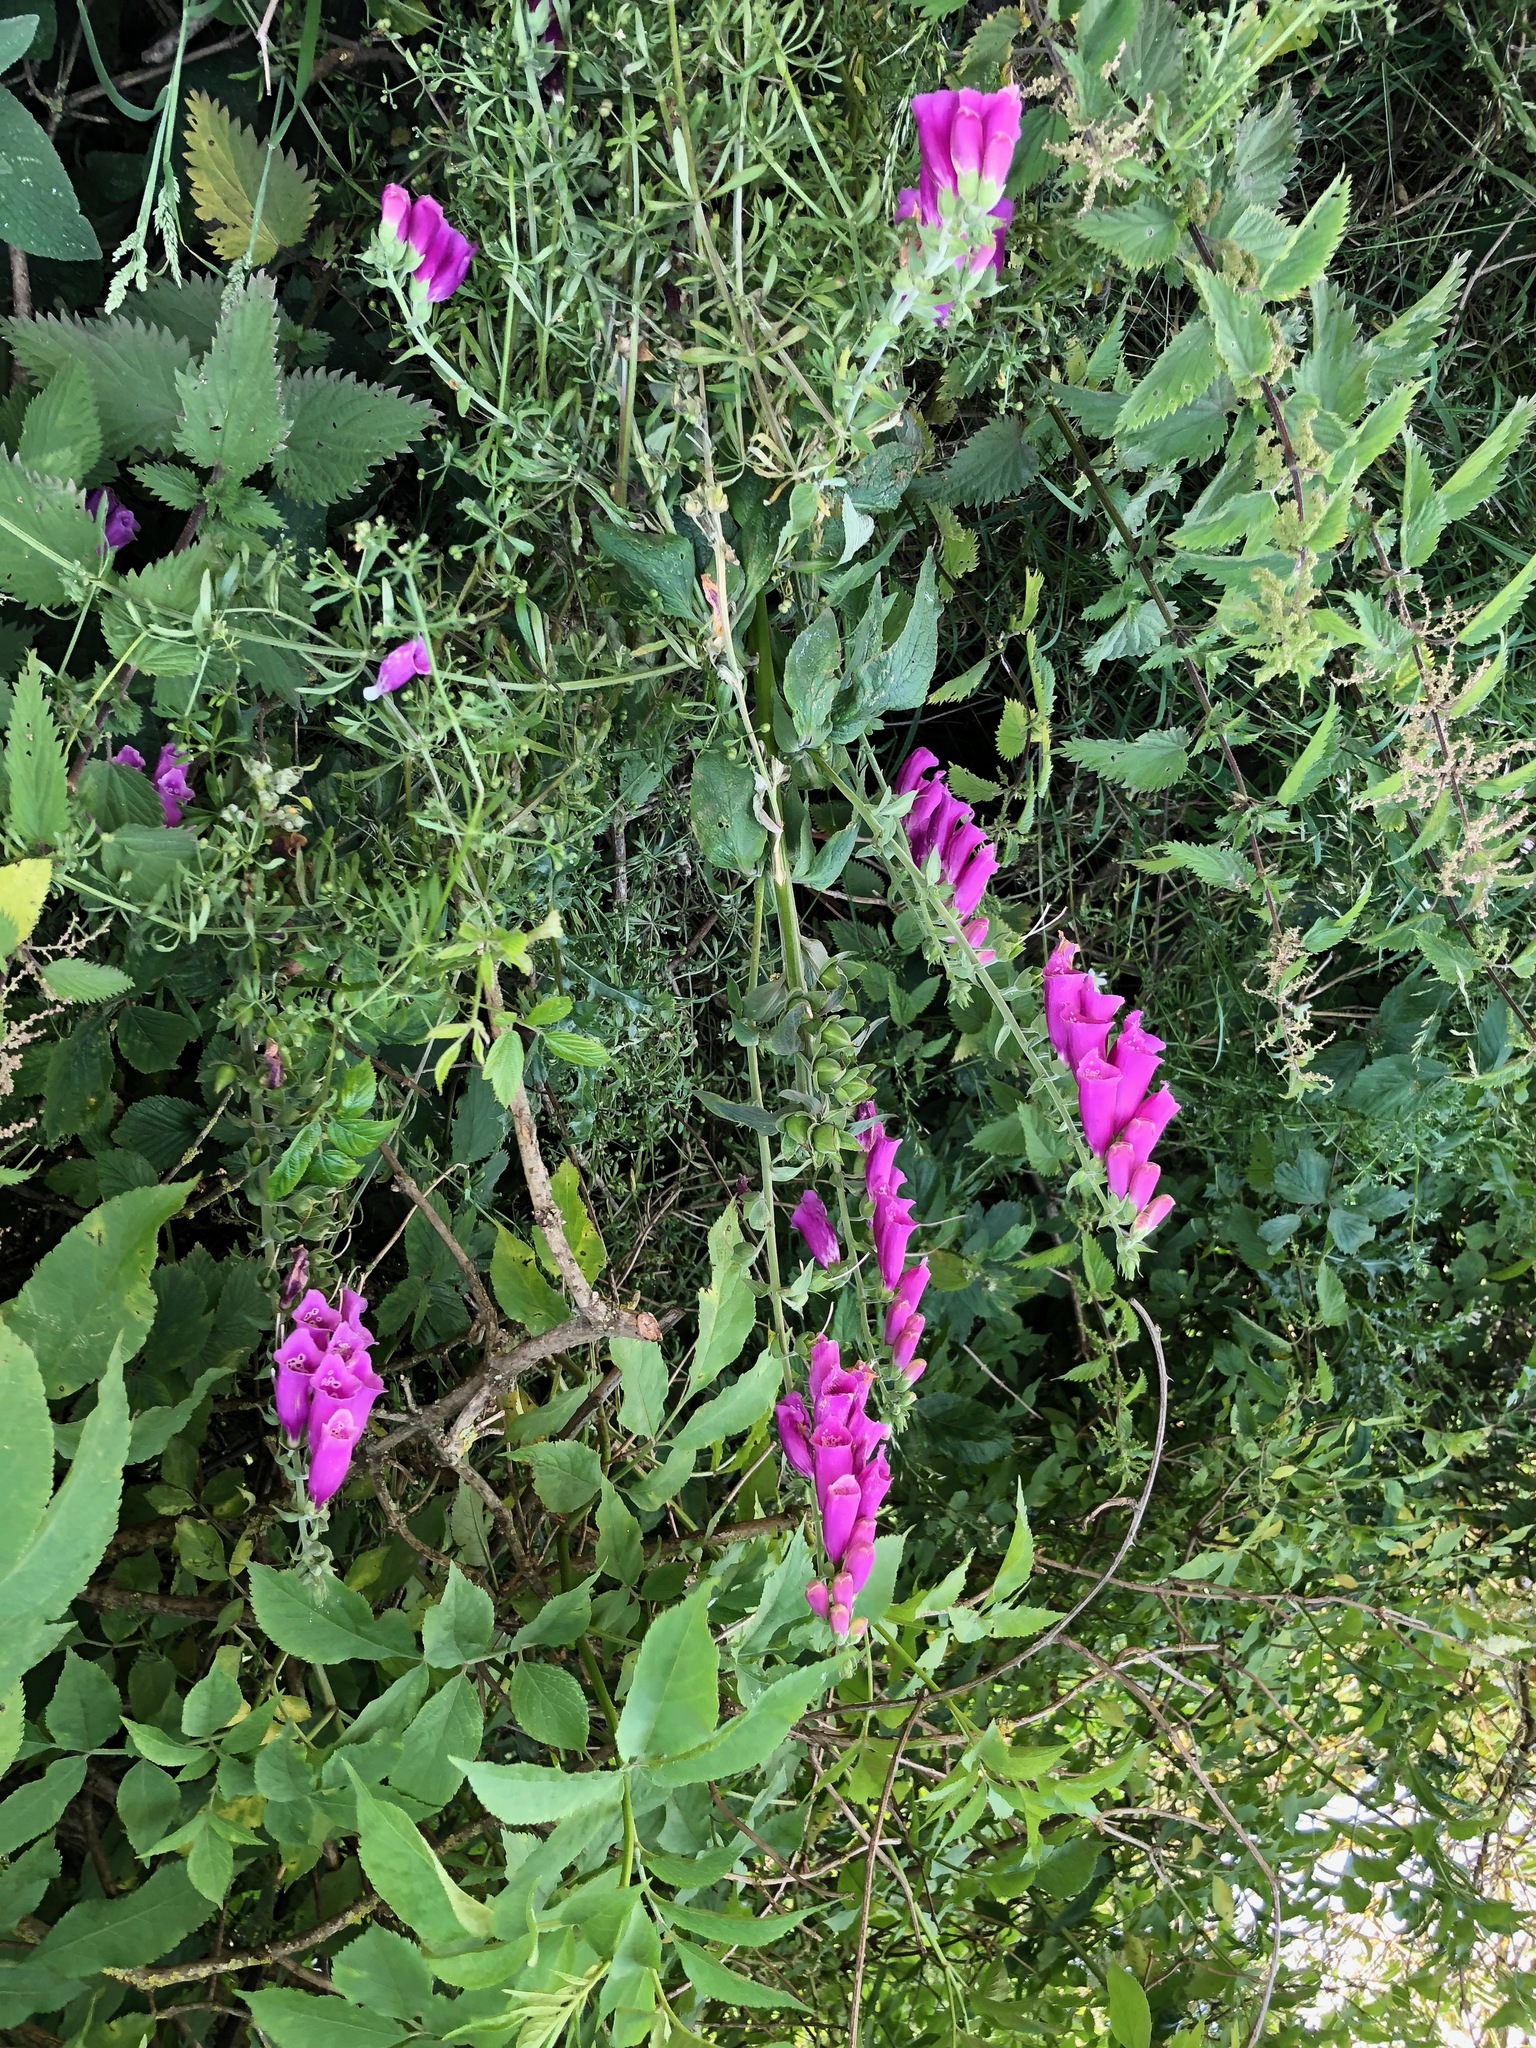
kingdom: Plantae
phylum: Tracheophyta
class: Magnoliopsida
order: Lamiales
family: Plantaginaceae
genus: Digitalis
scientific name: Digitalis purpurea
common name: Foxglove
